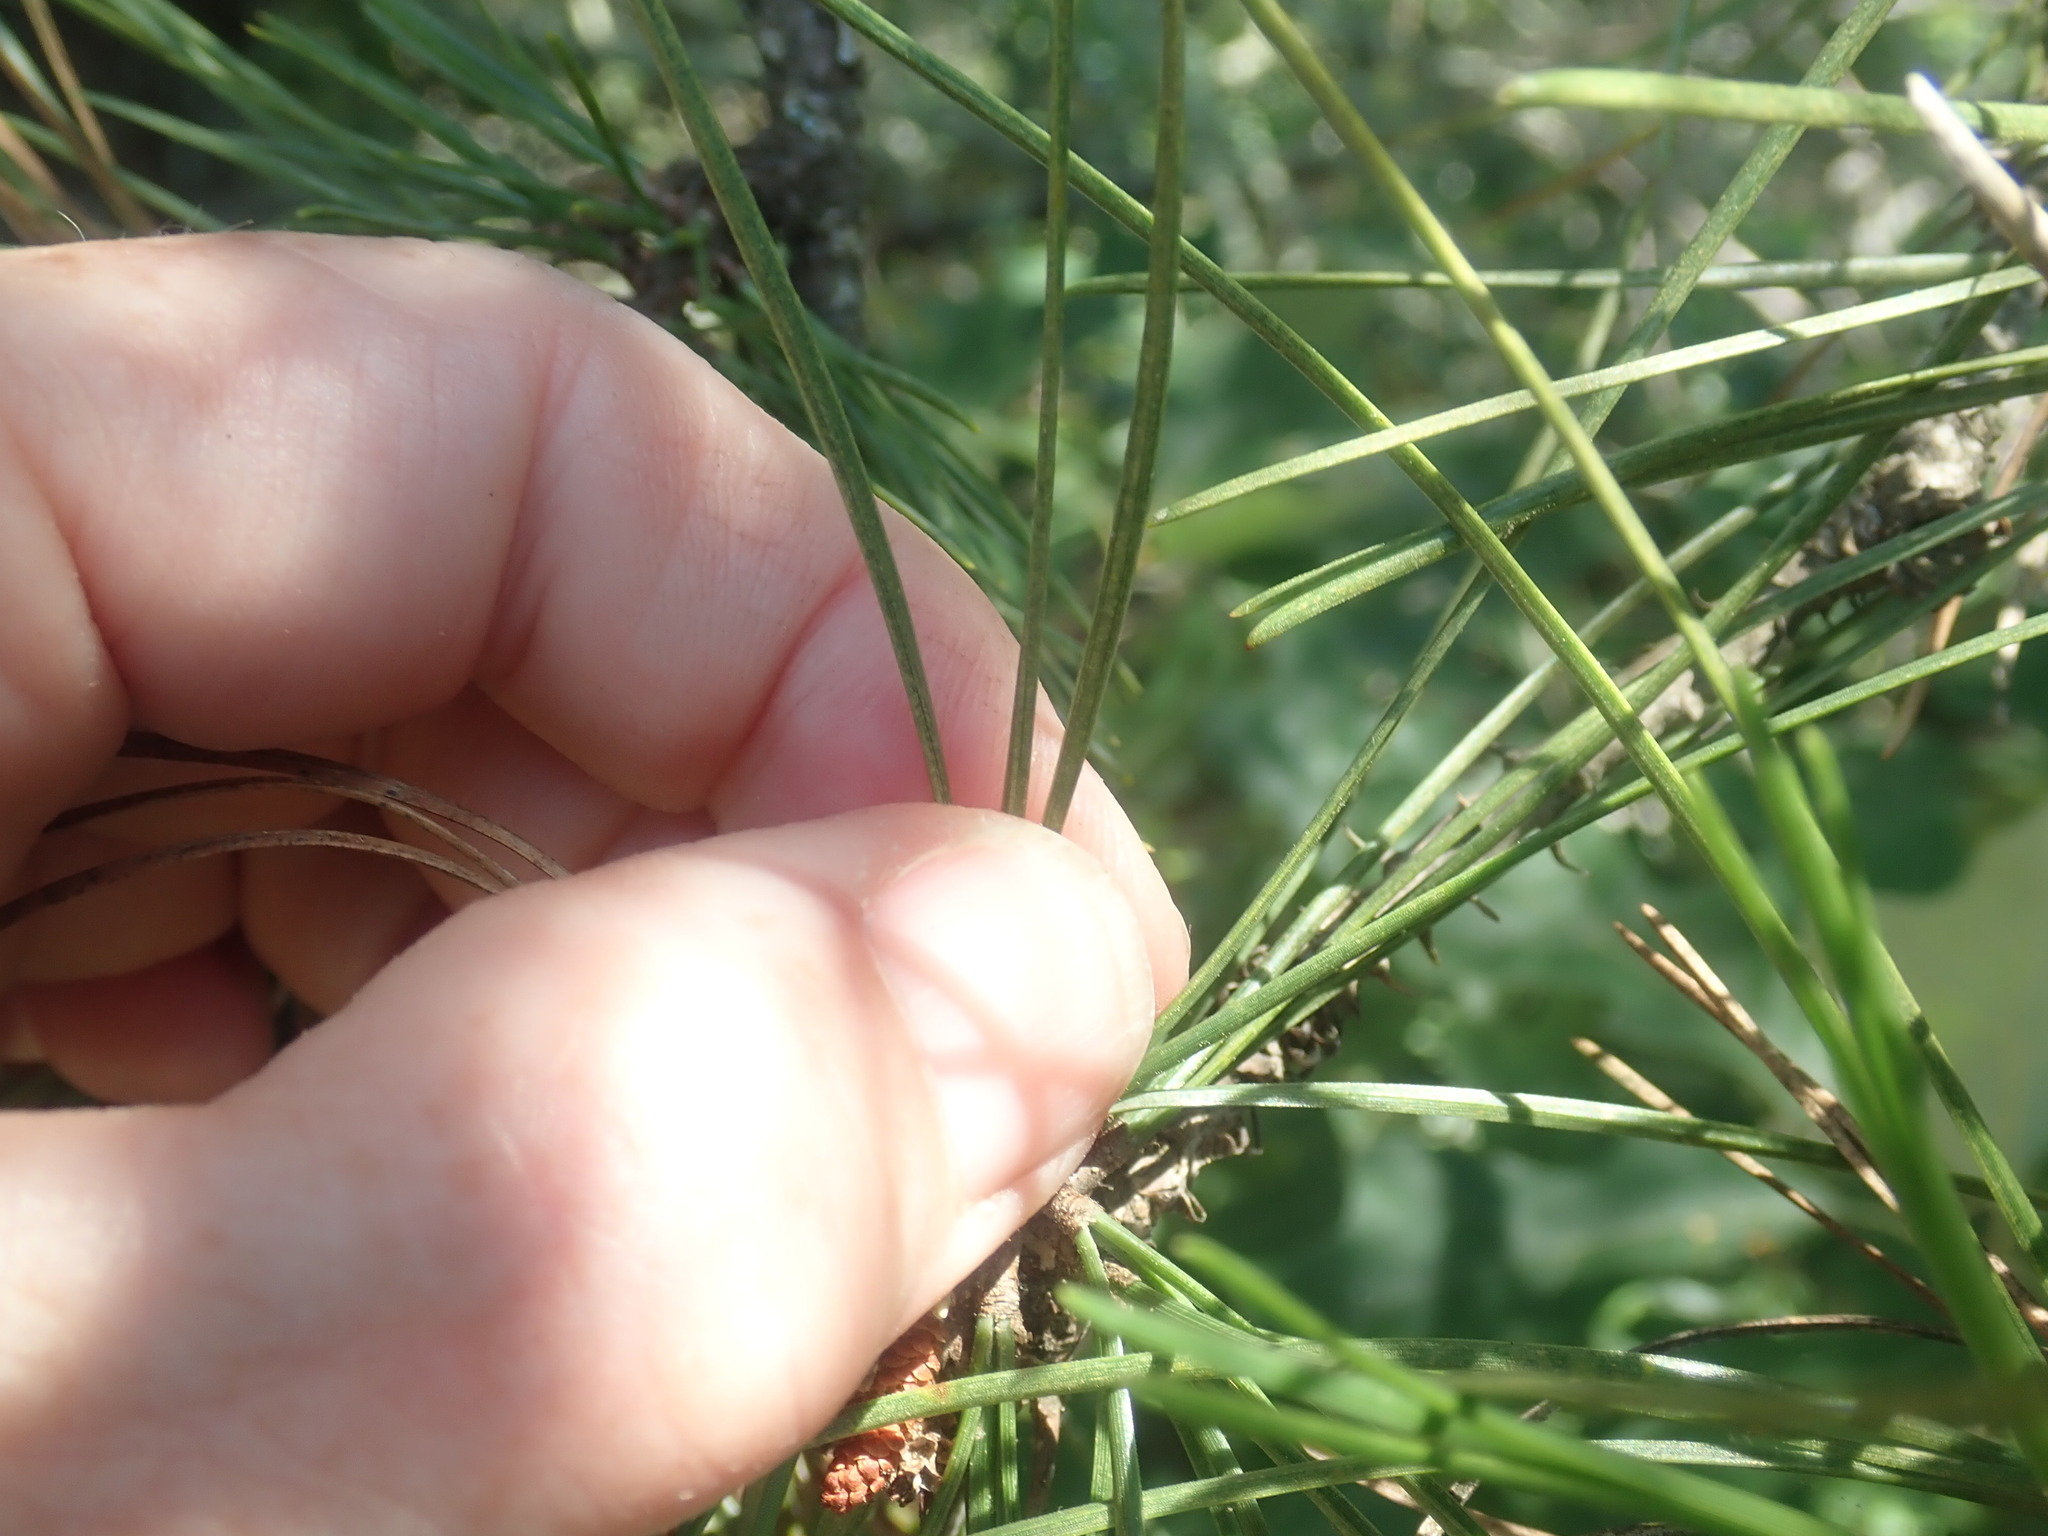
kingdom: Plantae
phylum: Tracheophyta
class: Pinopsida
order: Pinales
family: Pinaceae
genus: Pinus
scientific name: Pinus rigida
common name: Pitch pine
